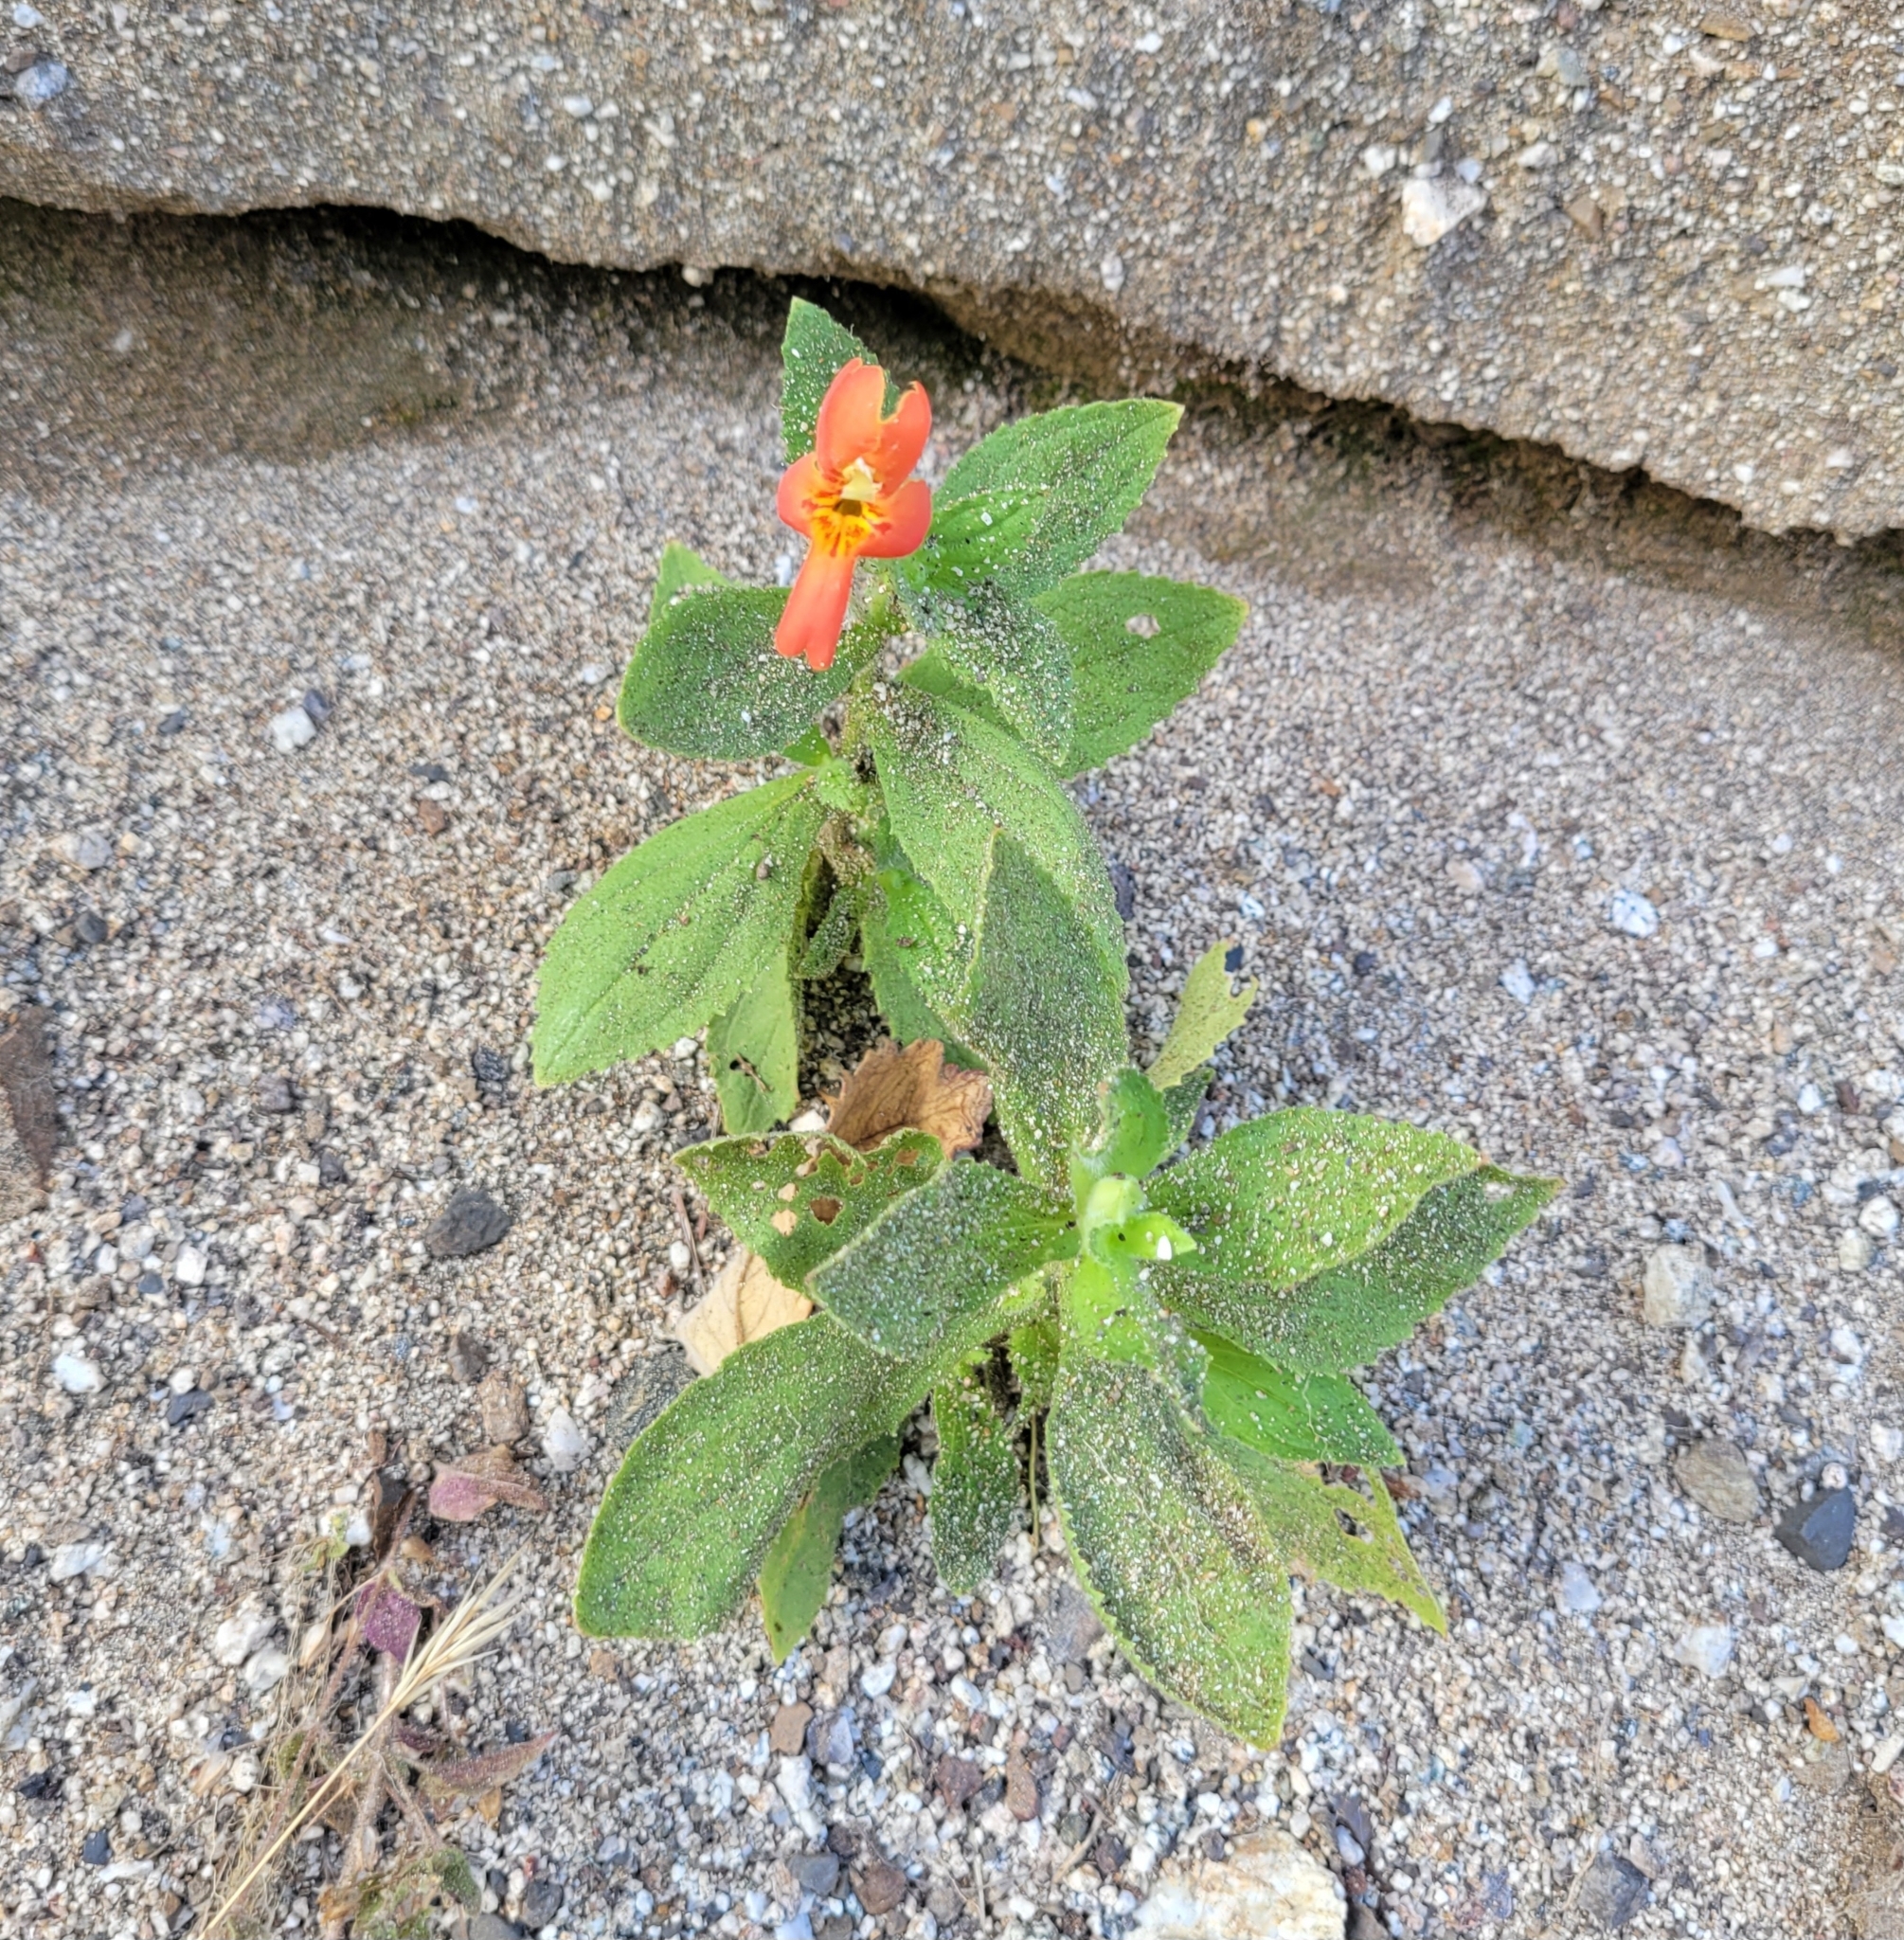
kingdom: Plantae
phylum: Tracheophyta
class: Magnoliopsida
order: Lamiales
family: Phrymaceae
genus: Erythranthe
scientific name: Erythranthe cardinalis
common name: Scarlet monkey-flower
